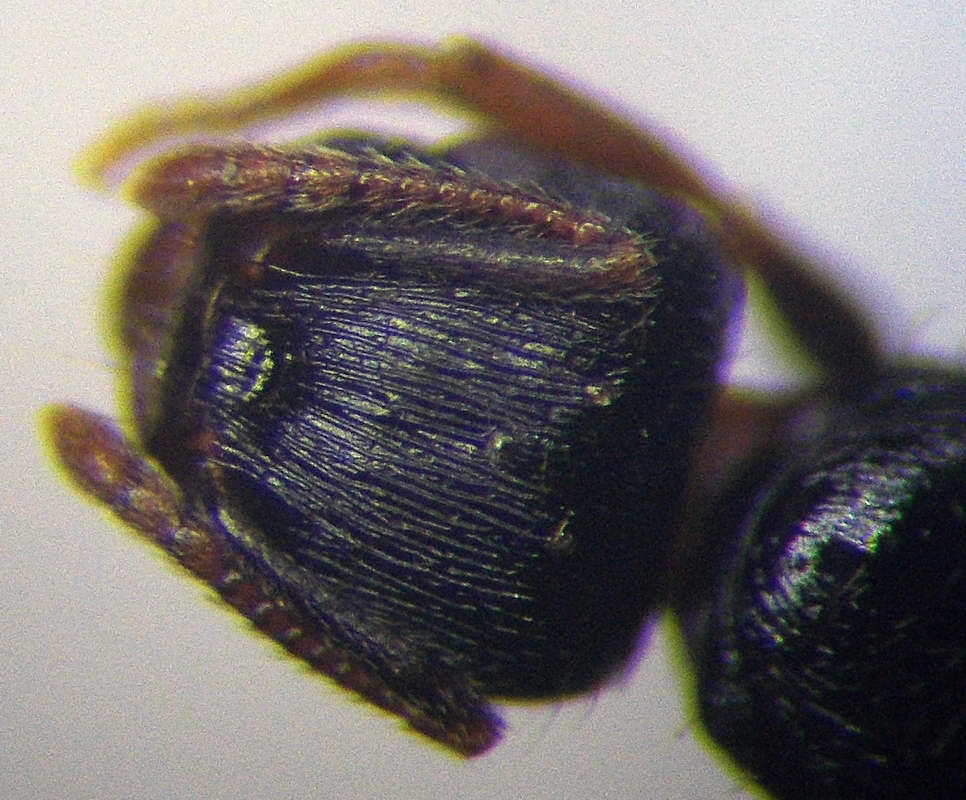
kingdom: Animalia
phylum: Arthropoda
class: Insecta
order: Hymenoptera
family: Formicidae
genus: Tetramorium
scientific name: Tetramorium chefketi
